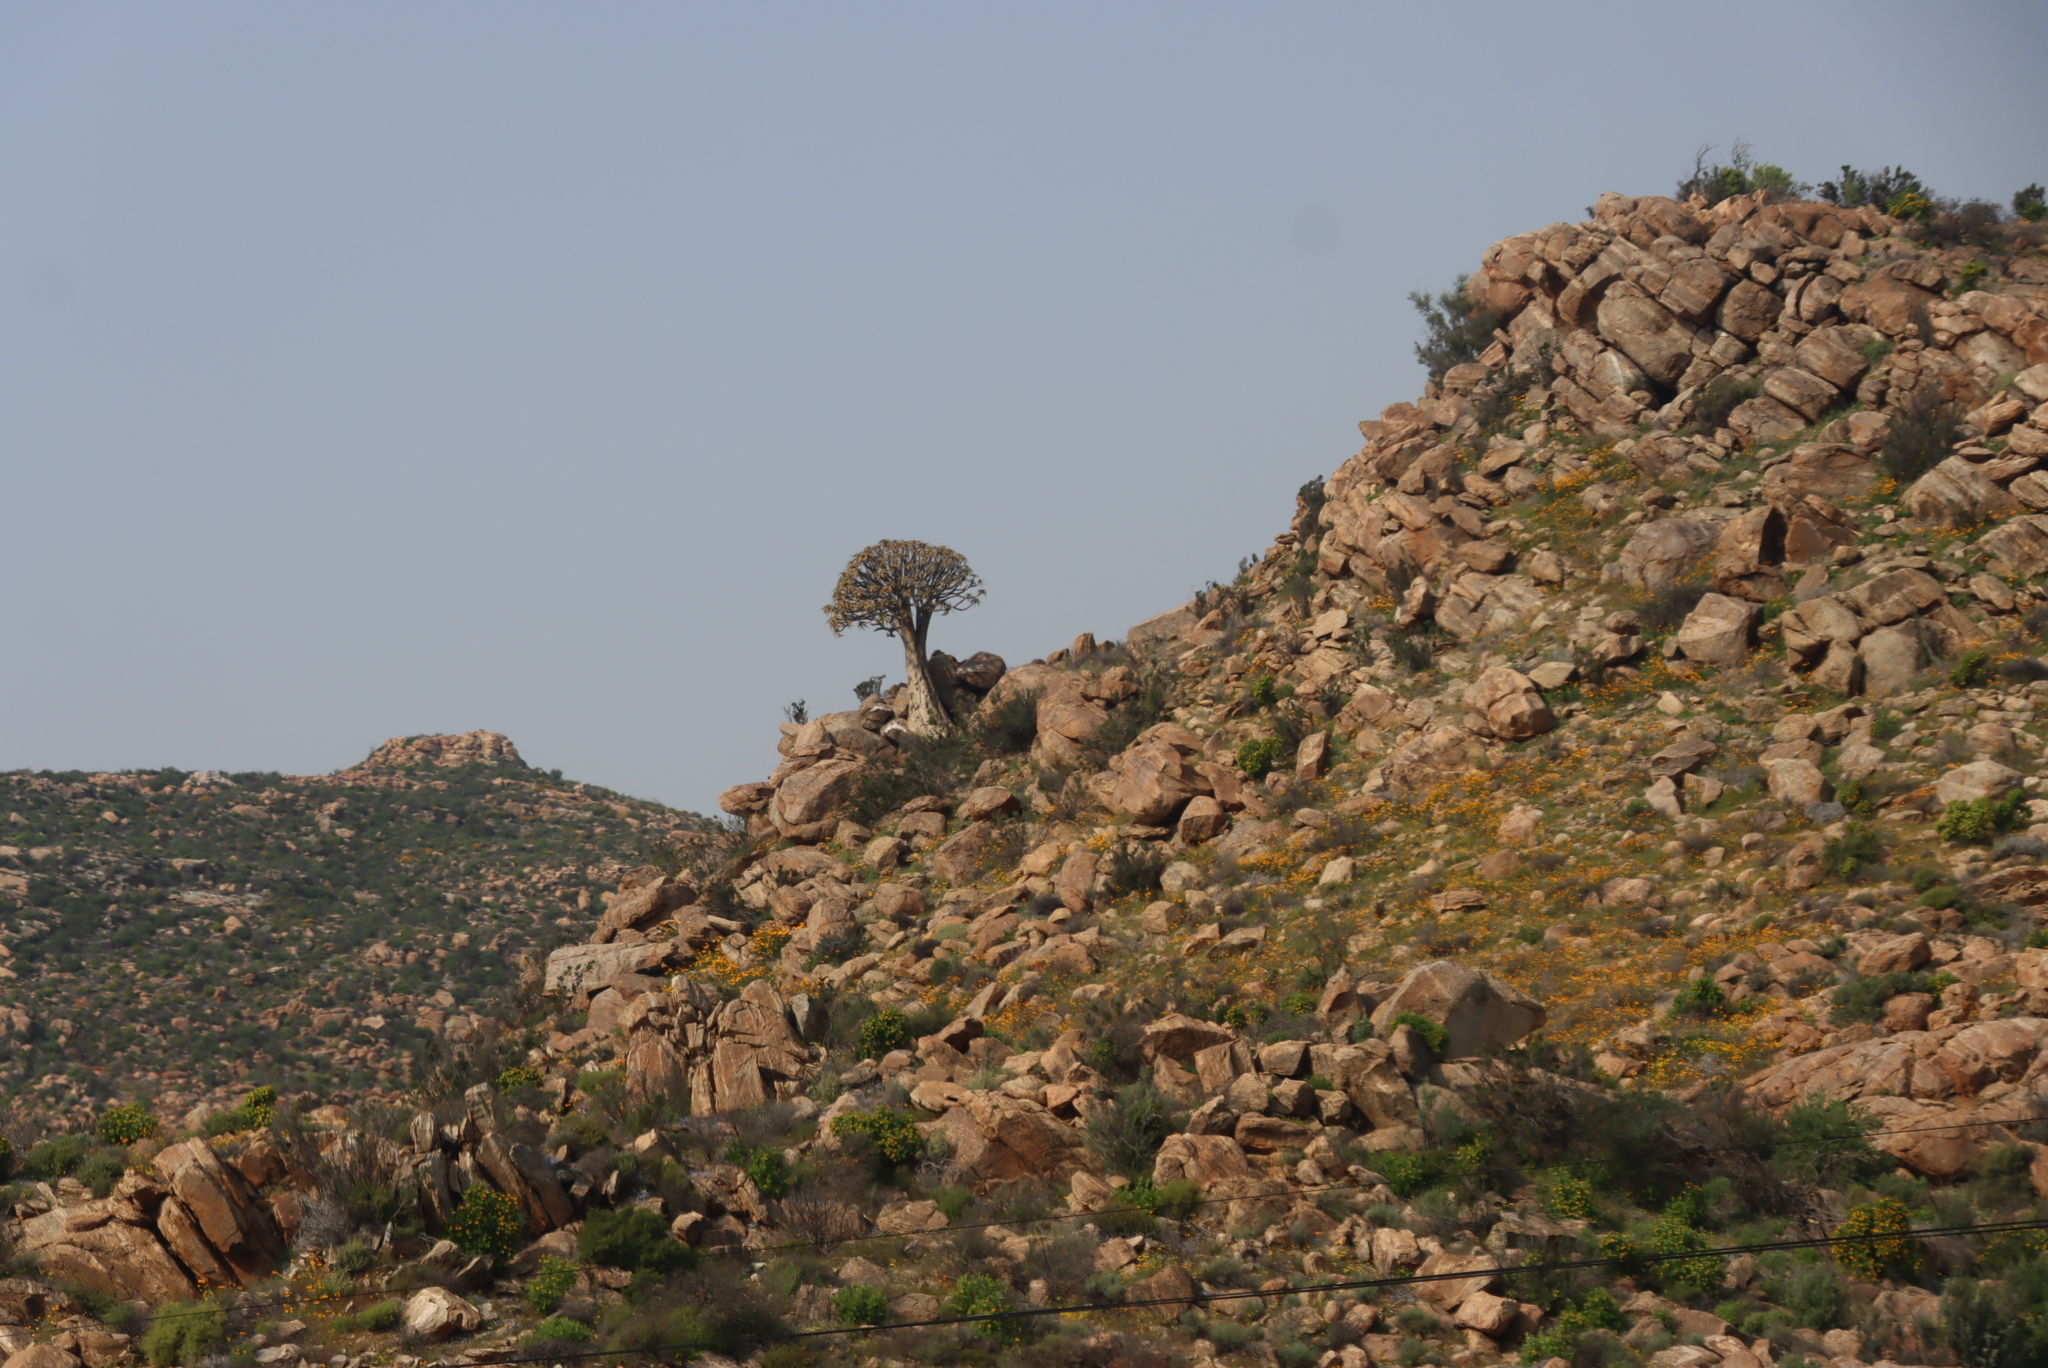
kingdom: Plantae
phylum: Tracheophyta
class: Liliopsida
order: Asparagales
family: Asphodelaceae
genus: Aloidendron
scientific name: Aloidendron dichotomum
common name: Quiver tree
